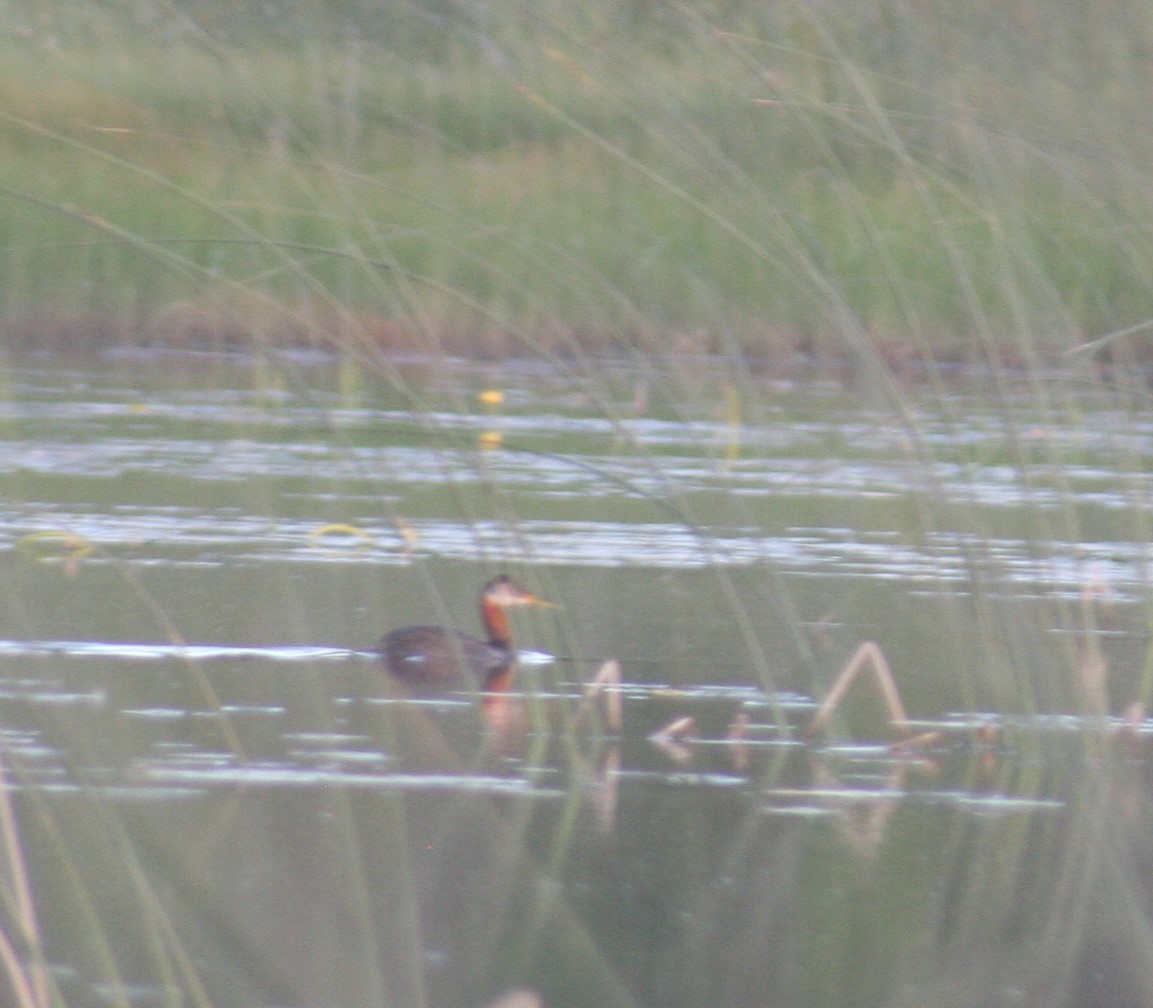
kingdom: Animalia
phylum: Chordata
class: Aves
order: Podicipediformes
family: Podicipedidae
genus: Podiceps
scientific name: Podiceps grisegena
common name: Red-necked grebe
